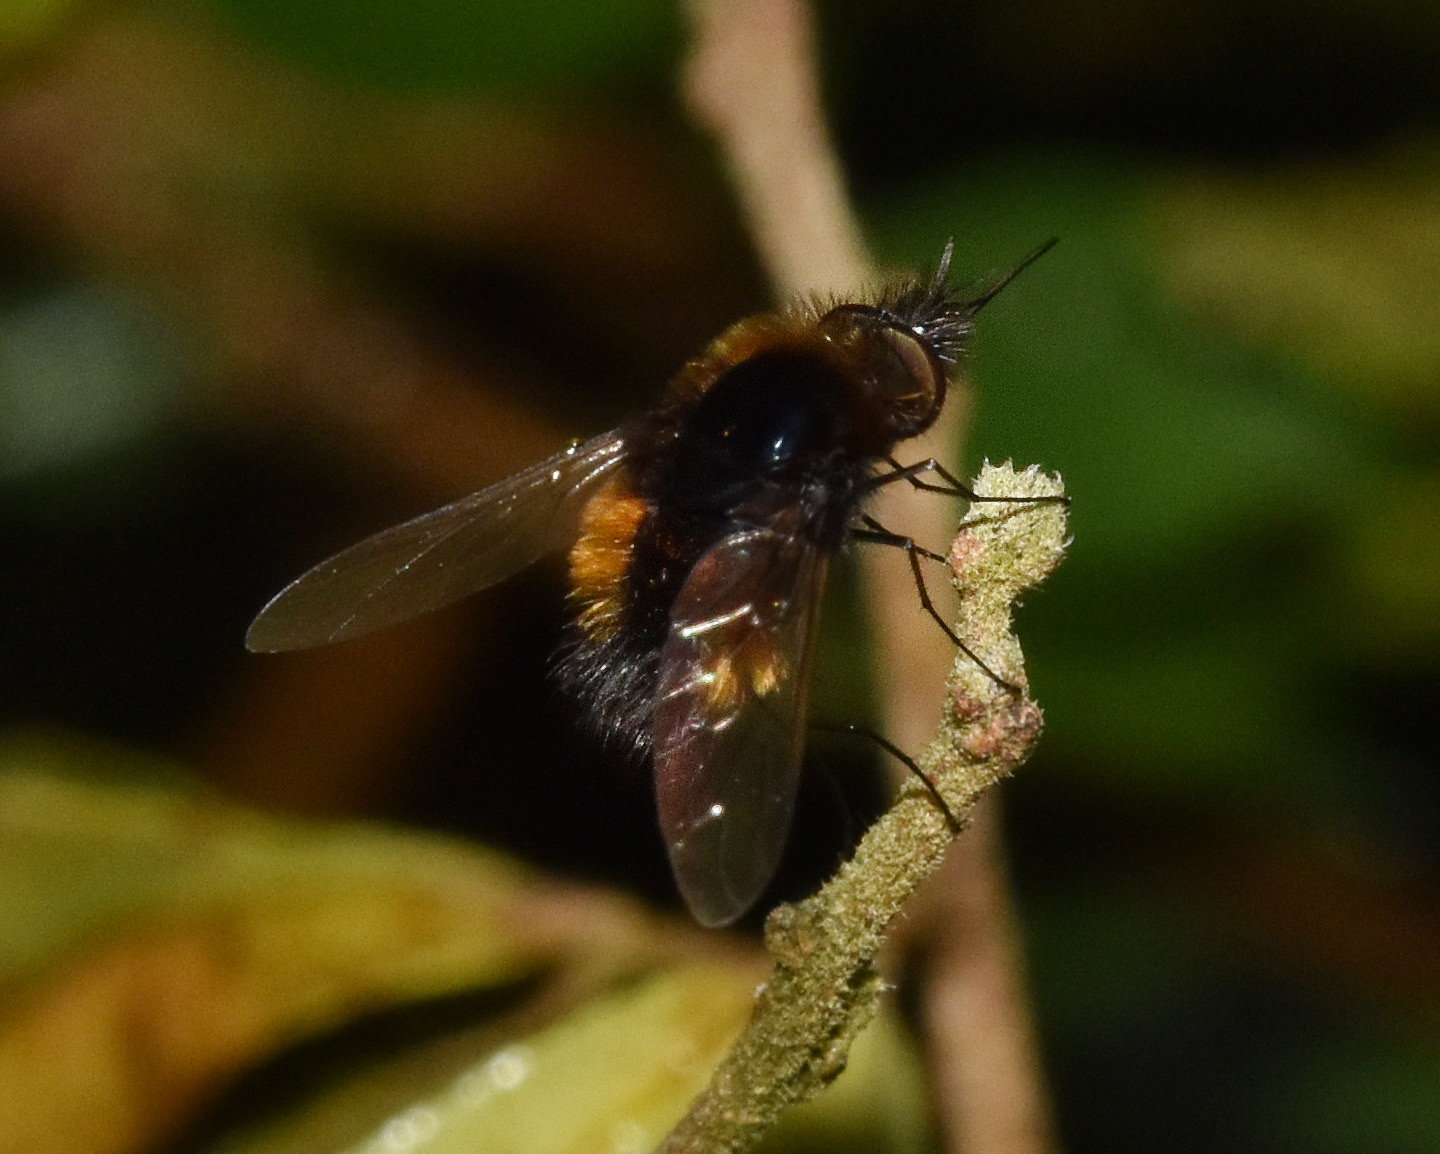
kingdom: Animalia
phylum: Arthropoda
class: Insecta
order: Diptera
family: Bombyliidae
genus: Bombylella
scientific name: Bombylella elegans
